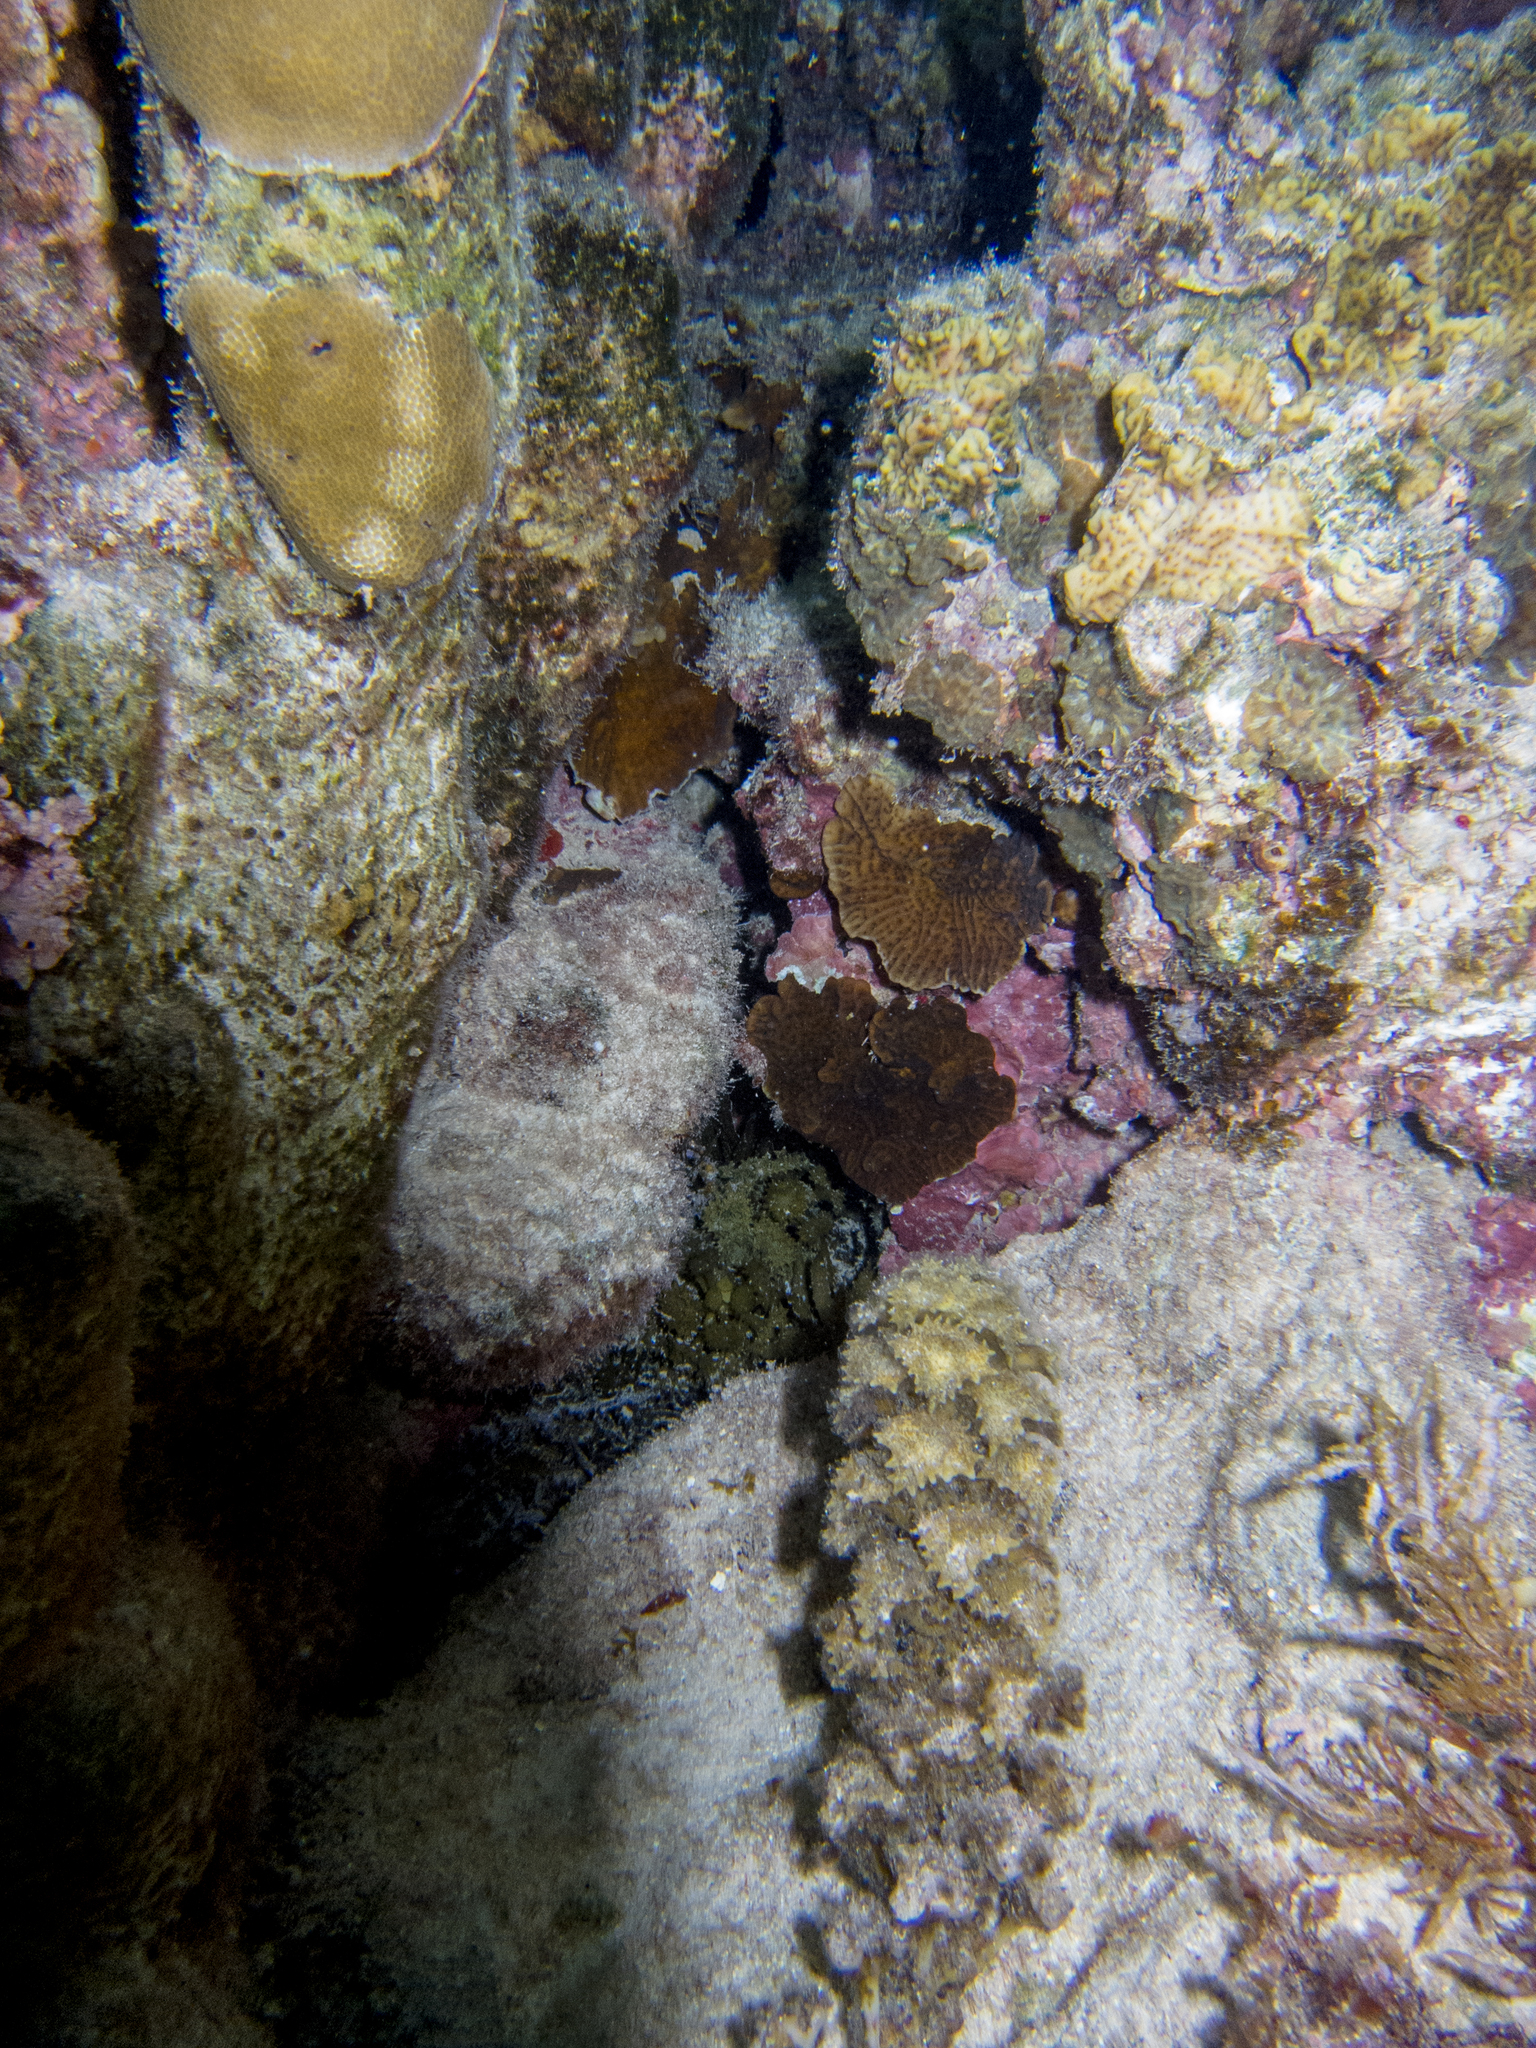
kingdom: Animalia
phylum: Cnidaria
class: Anthozoa
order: Scleractinia
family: Agariciidae
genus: Leptoseris
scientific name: Leptoseris yabei
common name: Porcelain coral
